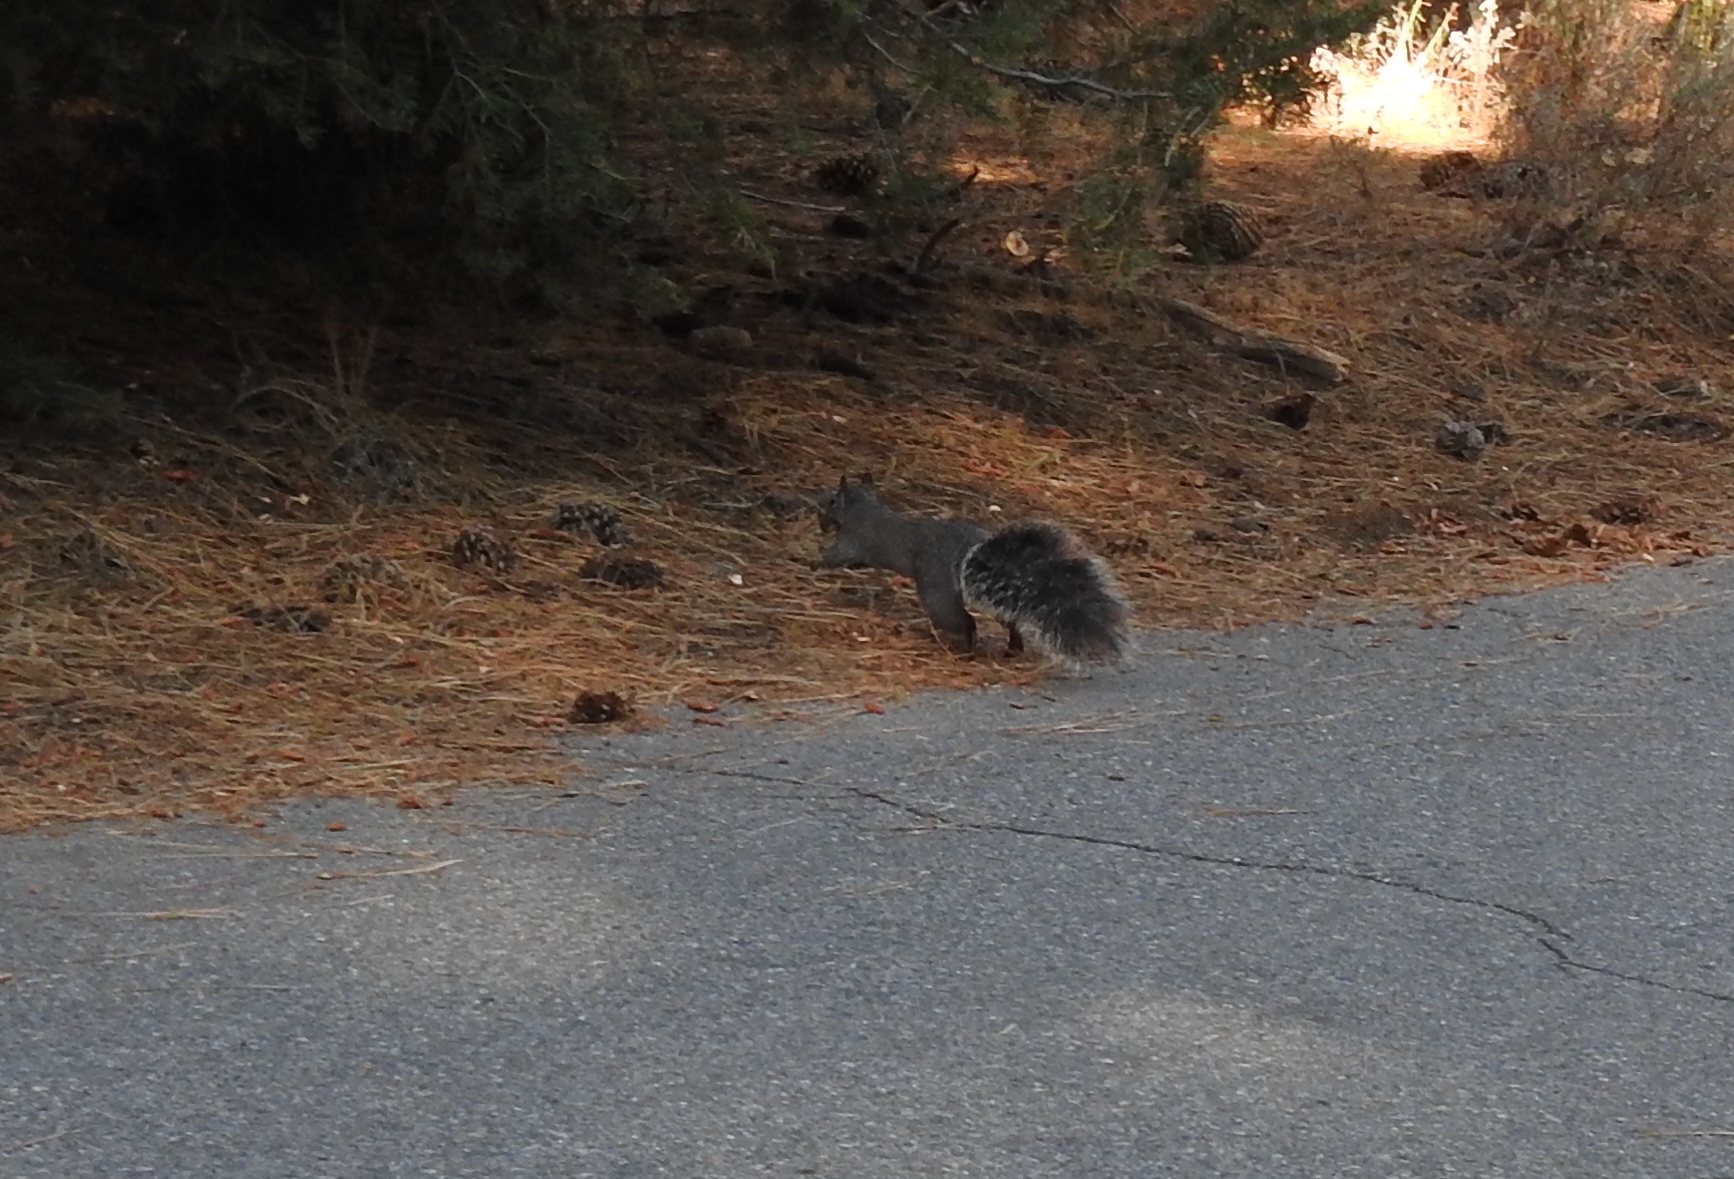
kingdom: Animalia
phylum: Chordata
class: Mammalia
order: Rodentia
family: Sciuridae
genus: Sciurus
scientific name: Sciurus griseus
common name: Western gray squirrel
